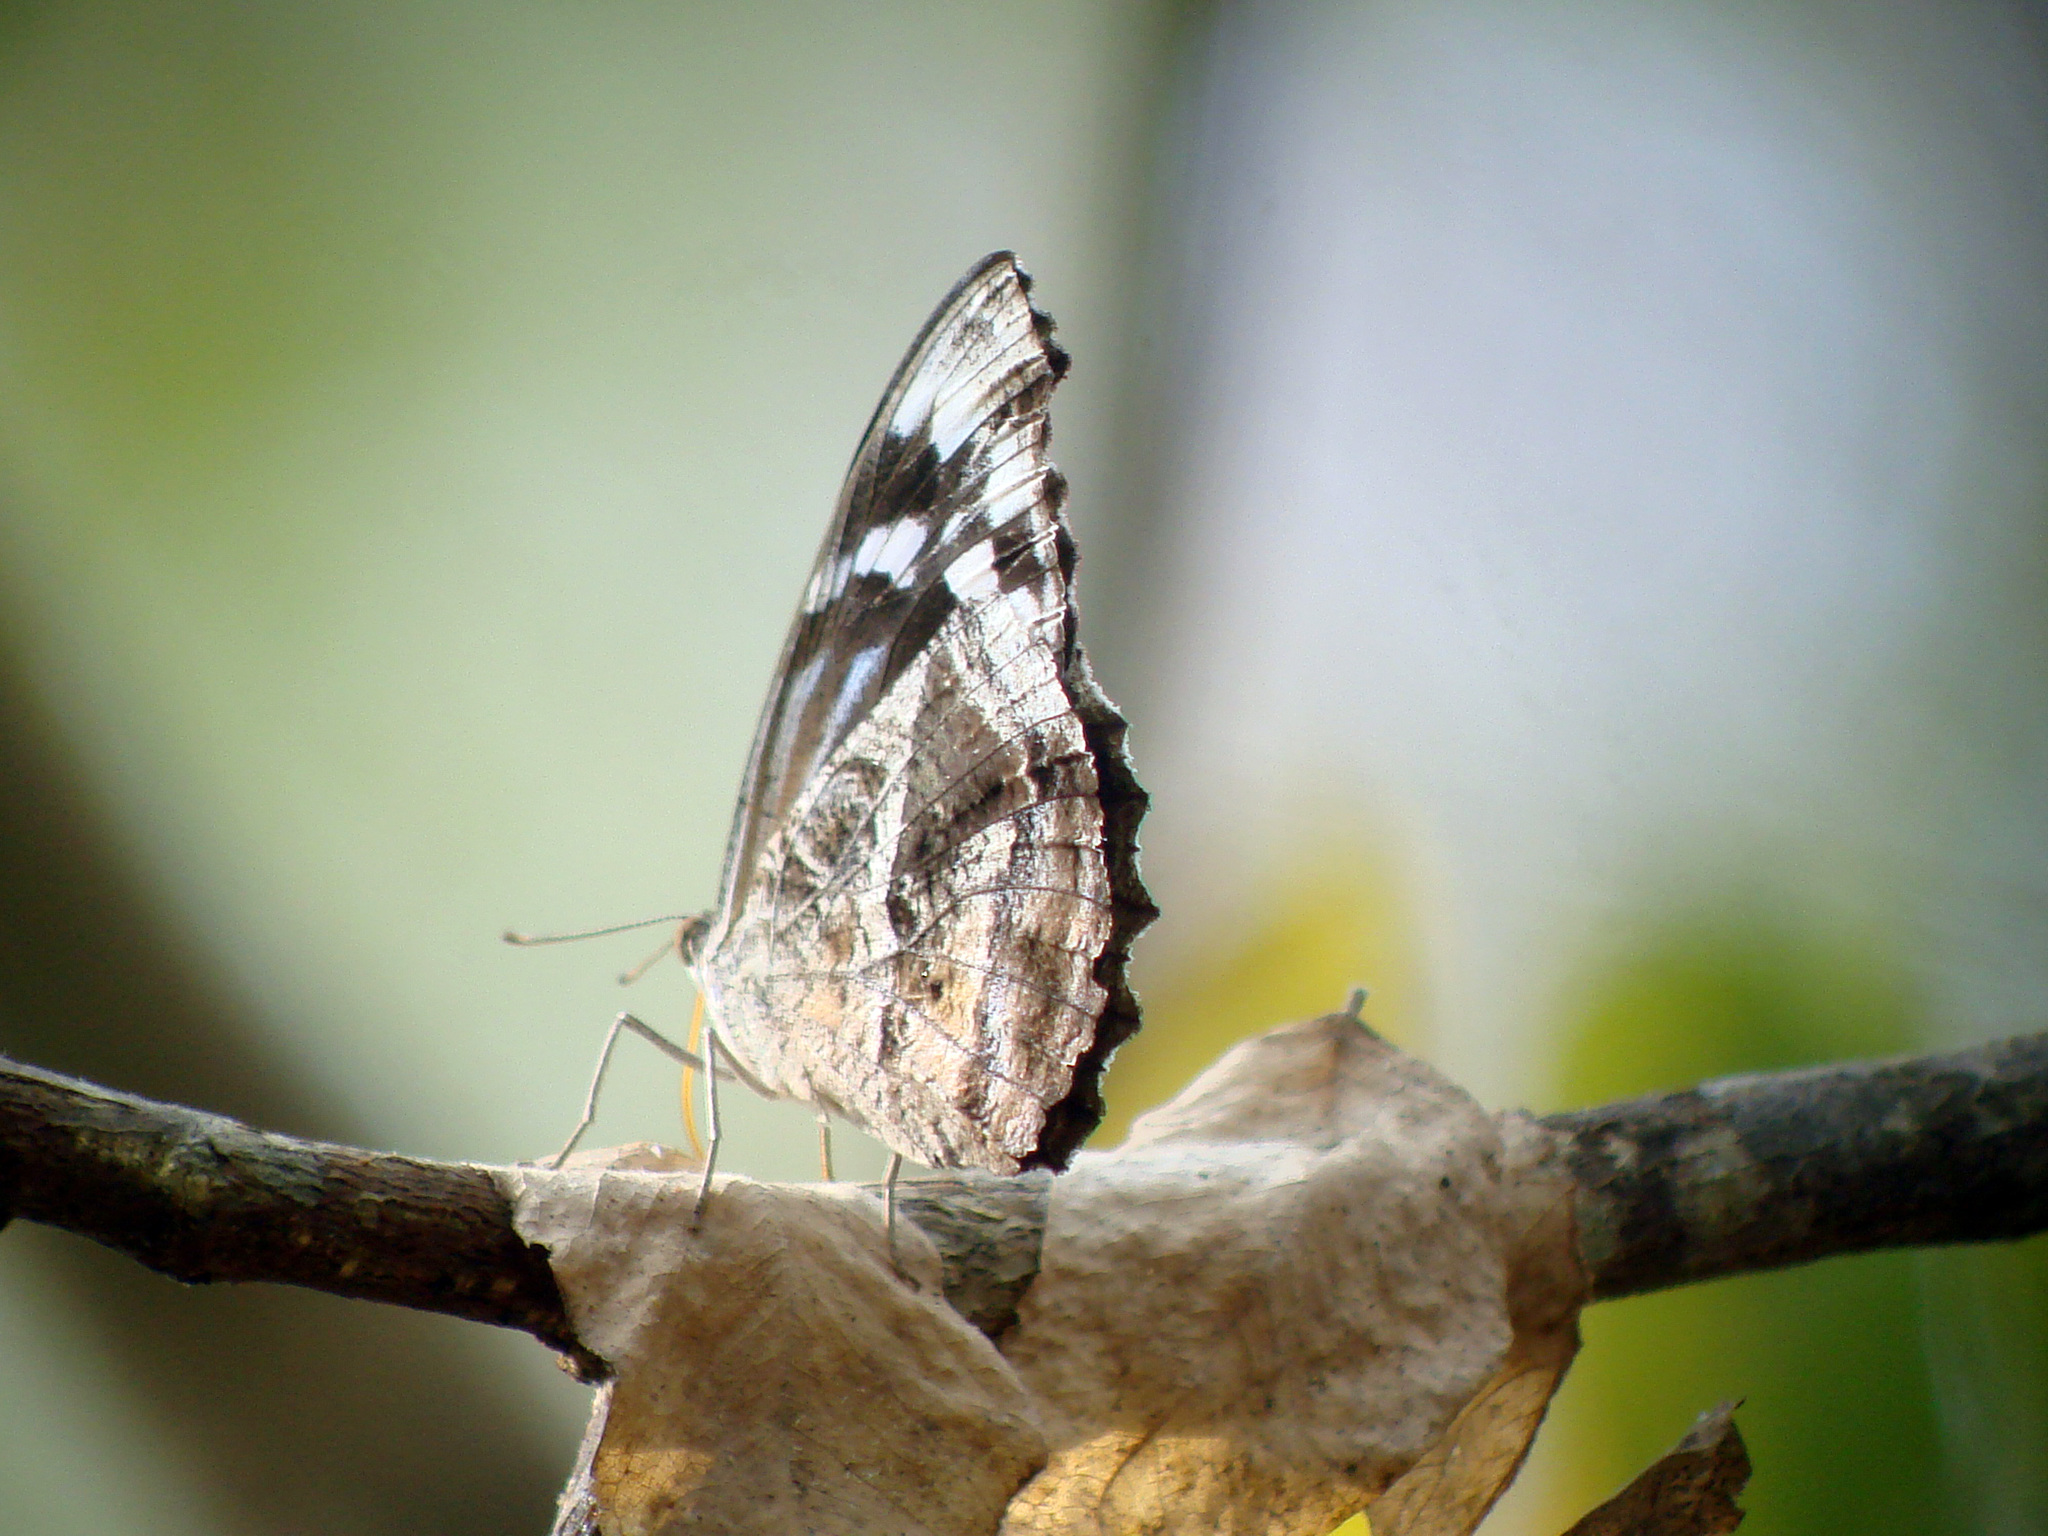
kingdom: Animalia
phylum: Arthropoda
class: Insecta
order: Lepidoptera
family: Nymphalidae
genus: Myscelia
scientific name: Myscelia ethusa
